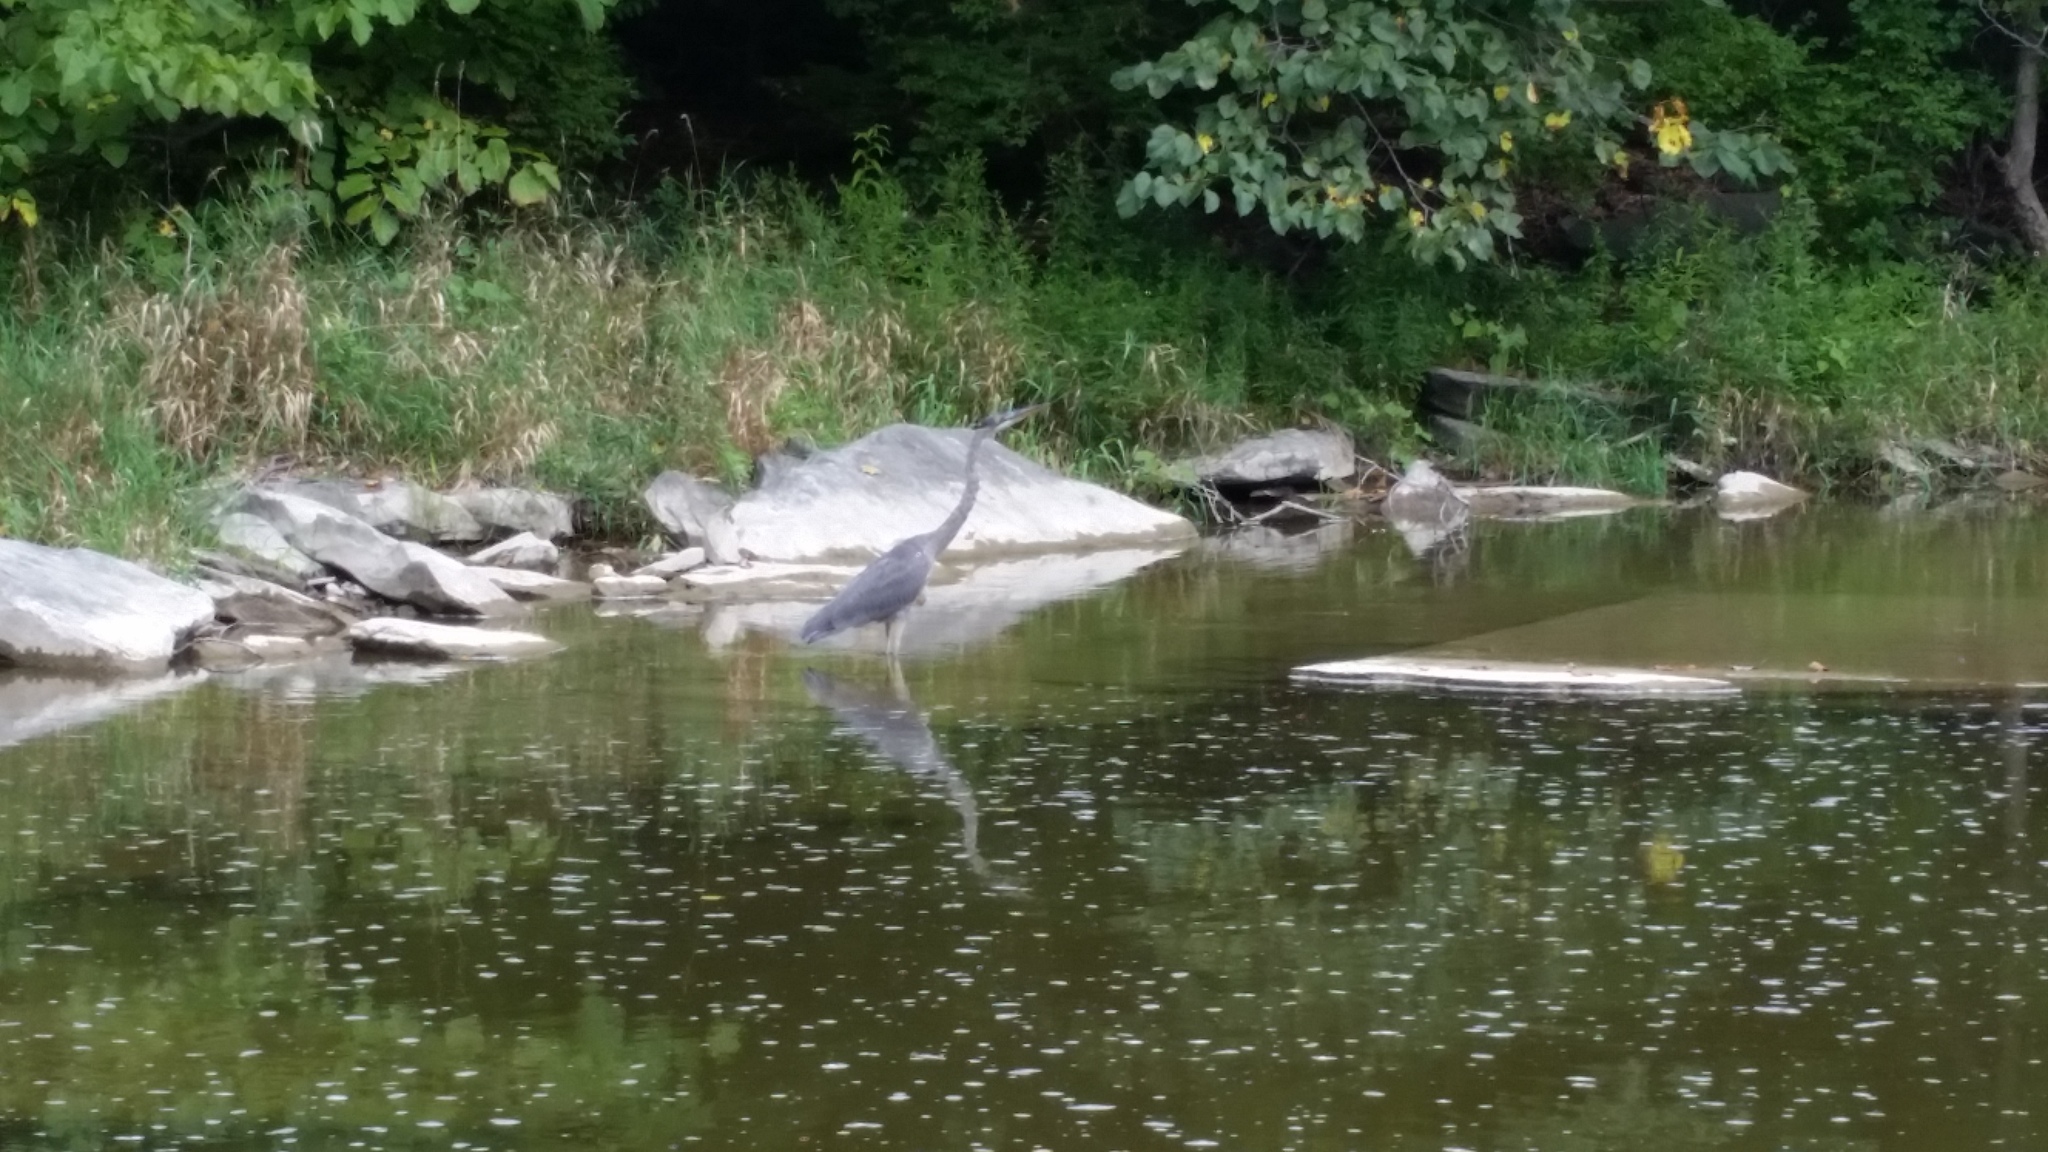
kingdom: Animalia
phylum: Chordata
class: Aves
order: Pelecaniformes
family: Ardeidae
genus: Ardea
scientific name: Ardea herodias
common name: Great blue heron
